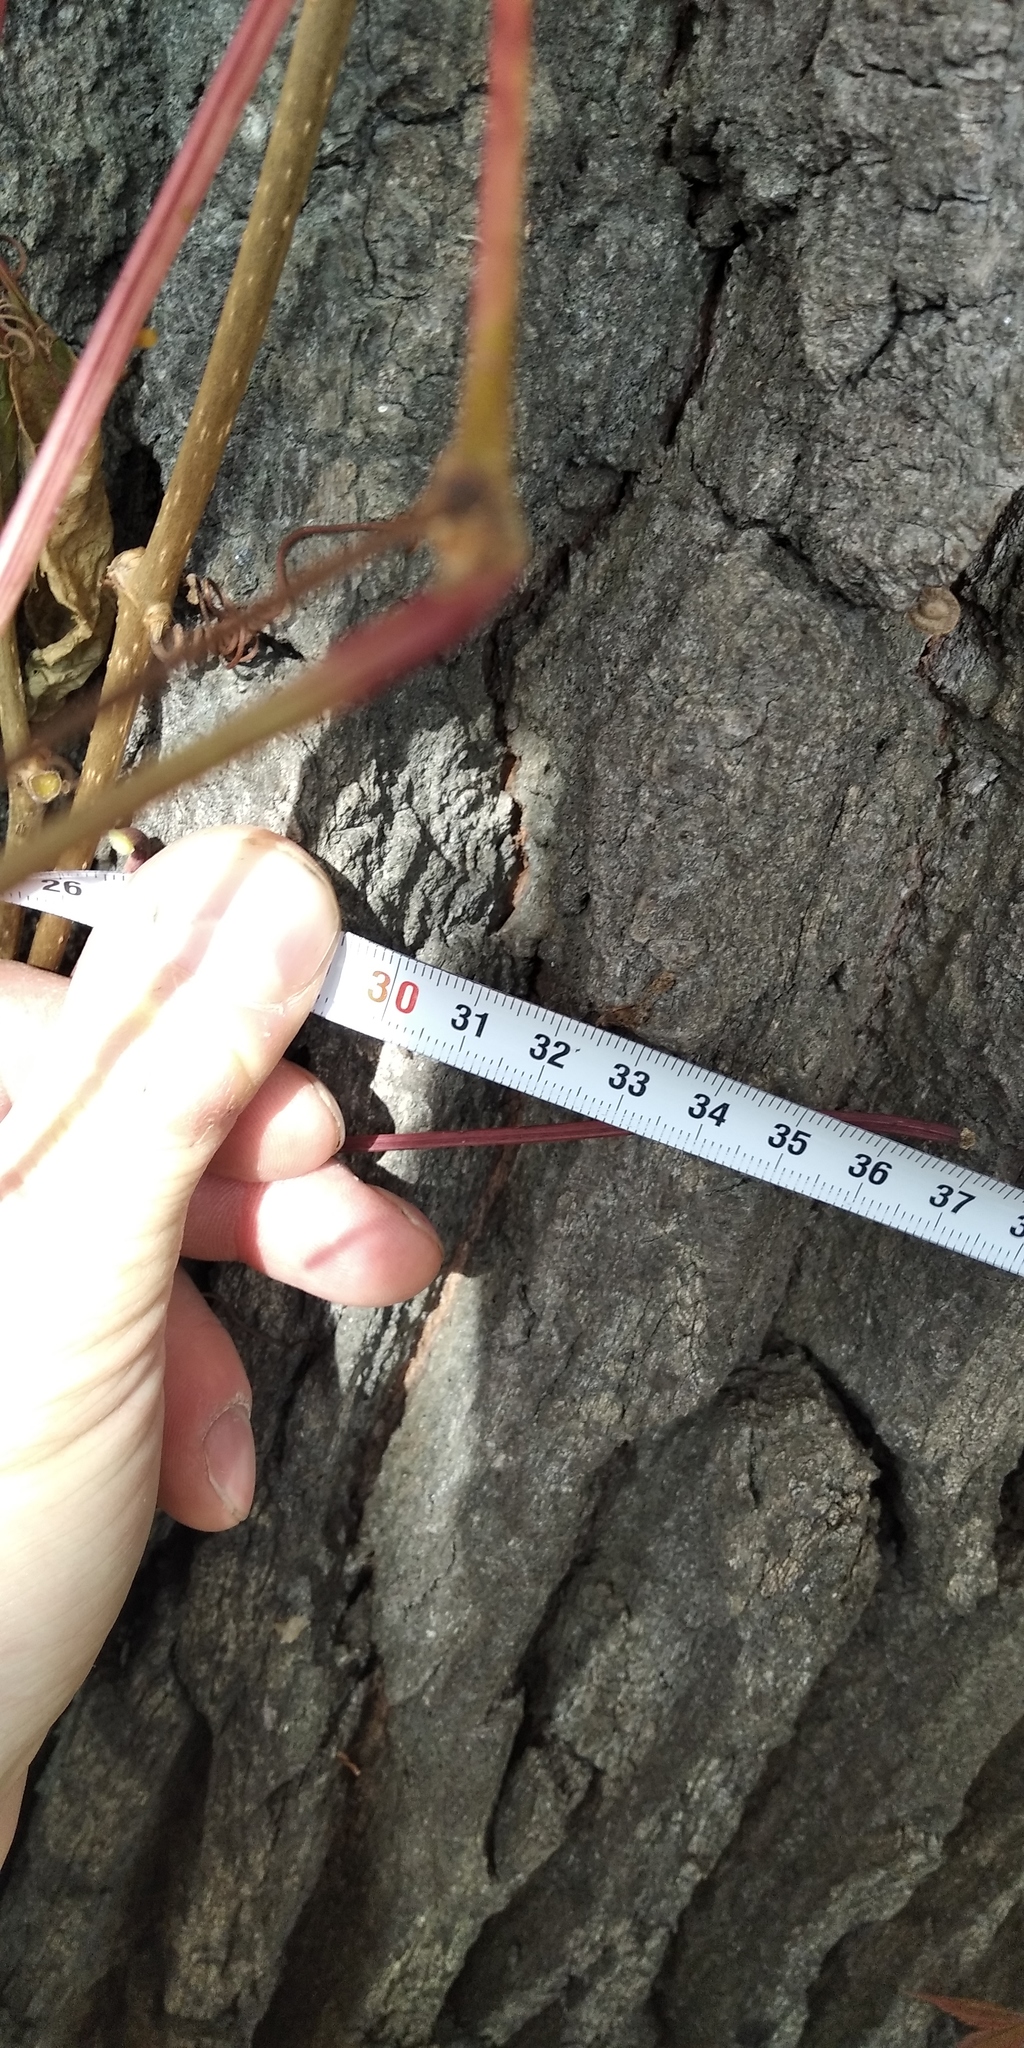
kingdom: Plantae
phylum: Tracheophyta
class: Magnoliopsida
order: Fagales
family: Fagaceae
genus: Quercus
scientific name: Quercus robur
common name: Pedunculate oak
